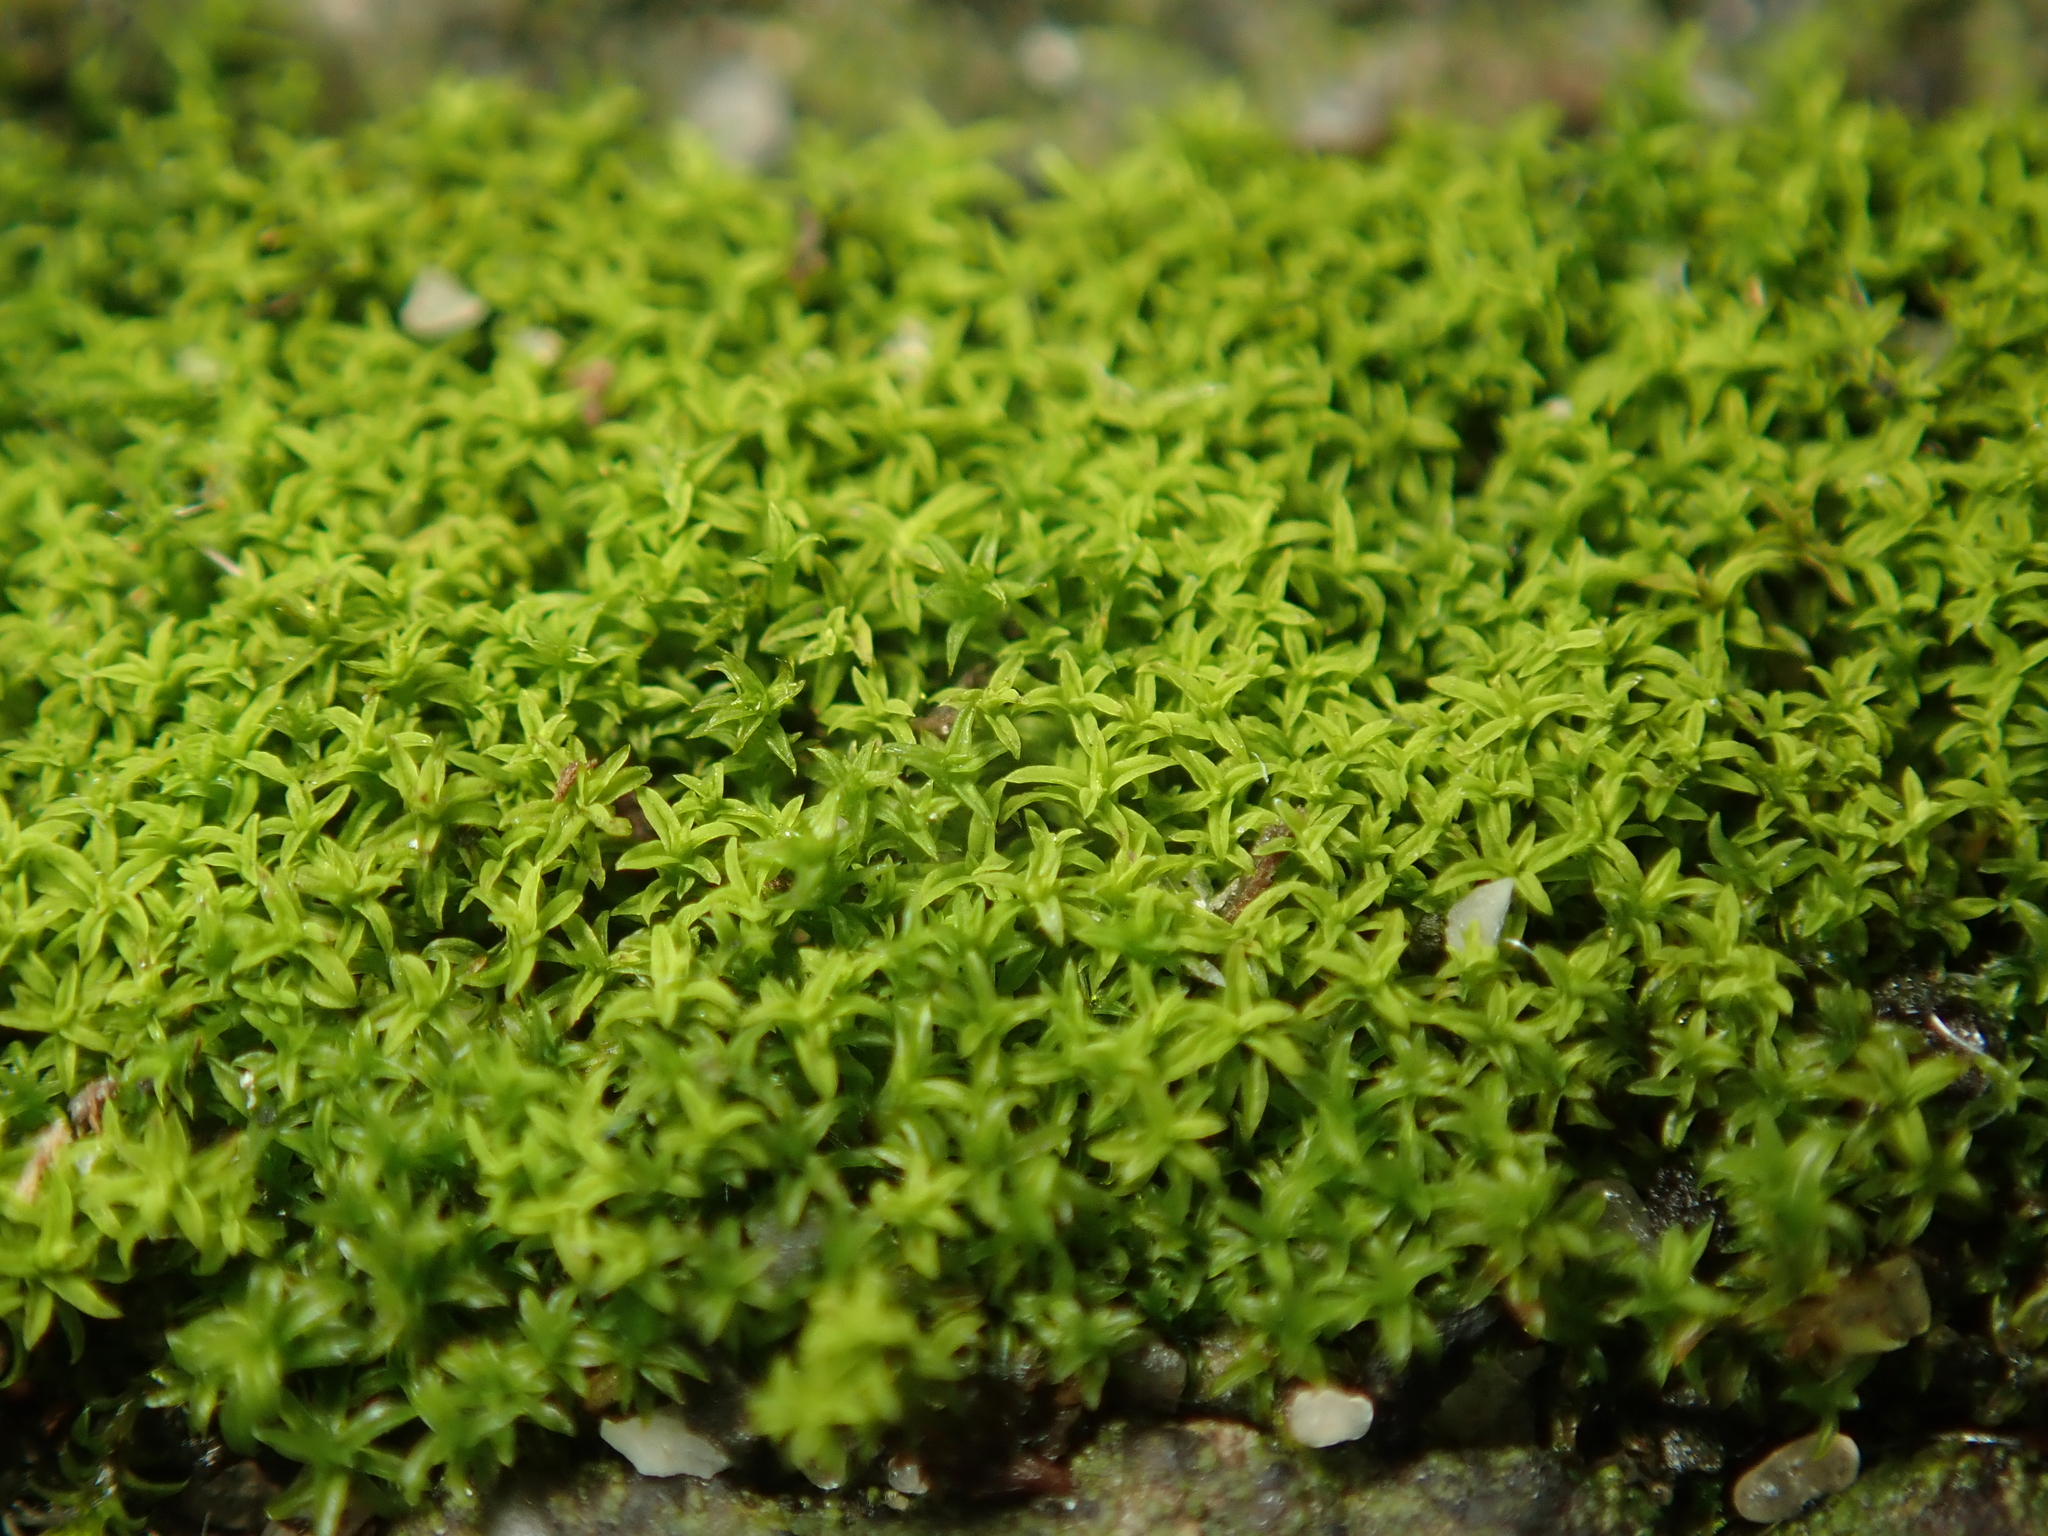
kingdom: Plantae
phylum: Bryophyta
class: Bryopsida
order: Pottiales
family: Pottiaceae
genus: Barbula
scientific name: Barbula unguiculata
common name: Prickly beard moss
